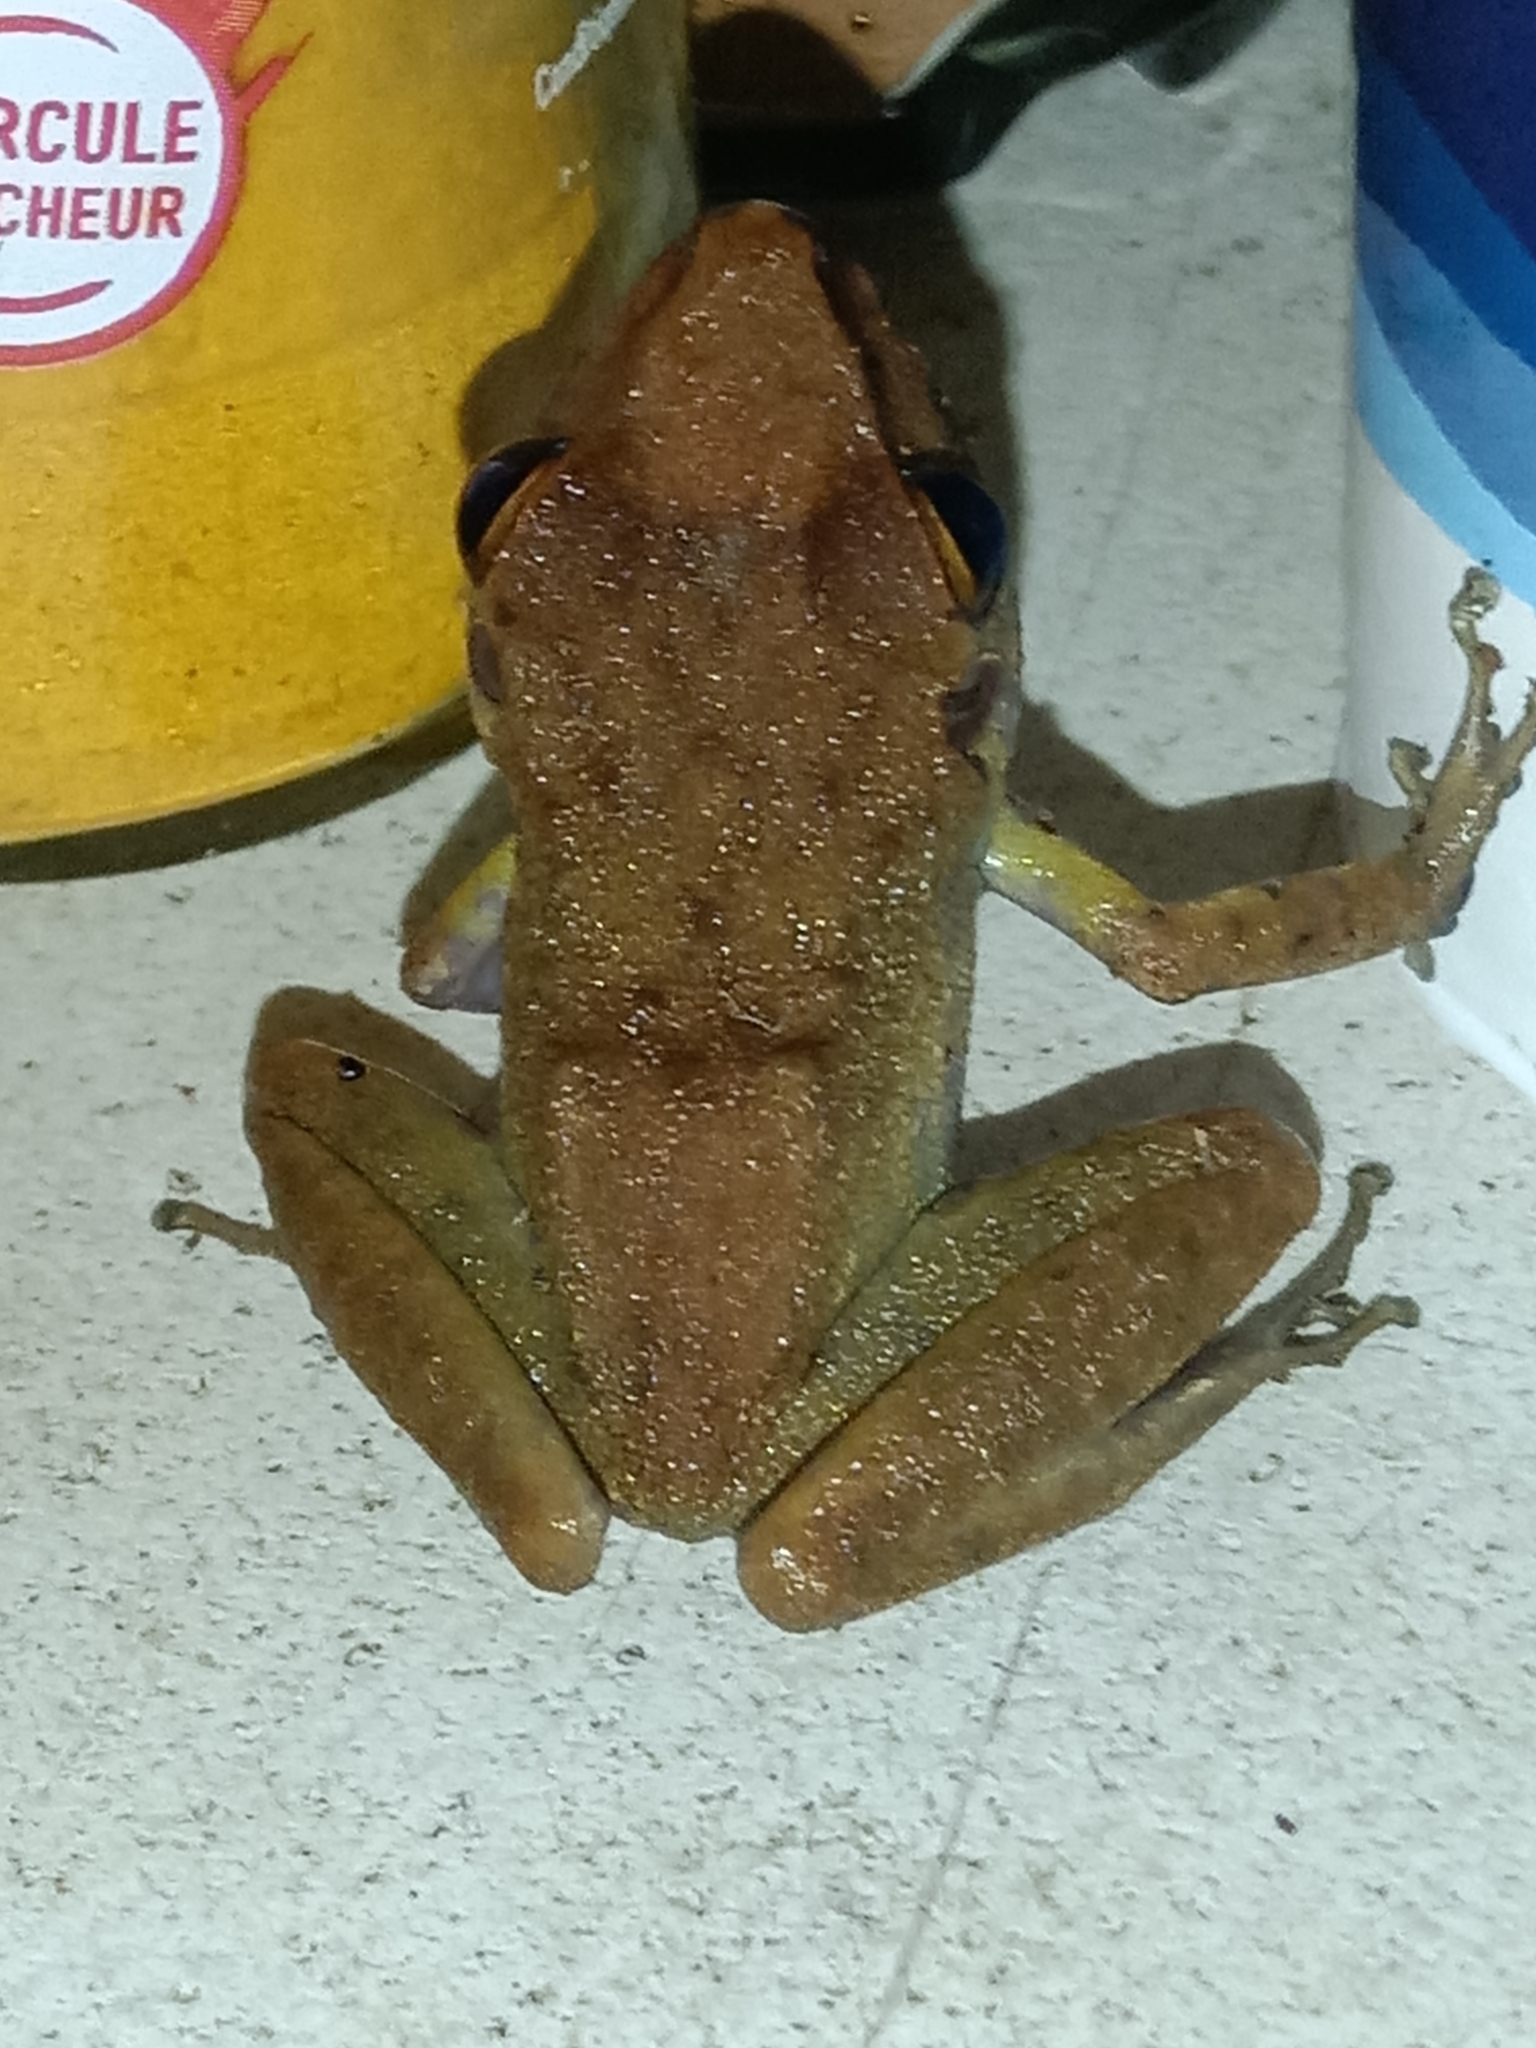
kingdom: Animalia
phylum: Chordata
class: Amphibia
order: Anura
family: Craugastoridae
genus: Pristimantis
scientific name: Pristimantis zeuctotylus
